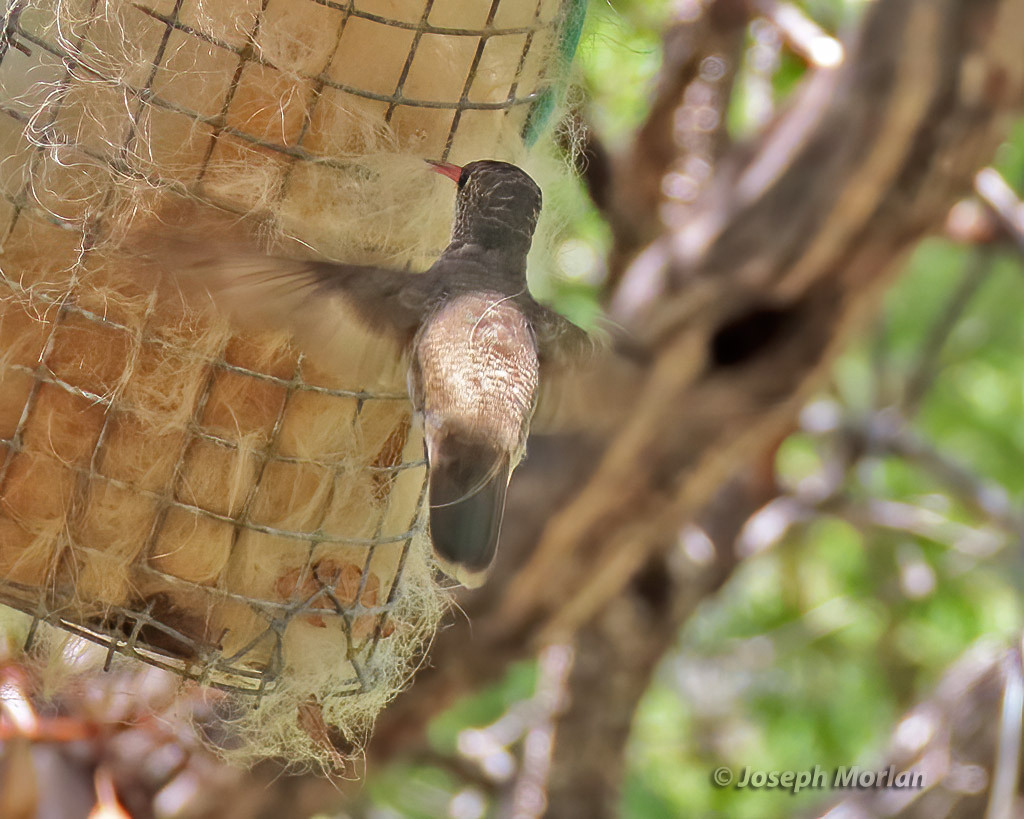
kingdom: Animalia
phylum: Chordata
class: Aves
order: Apodiformes
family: Trochilidae
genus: Leucolia
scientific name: Leucolia violiceps
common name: Violet-crowned hummingbird
